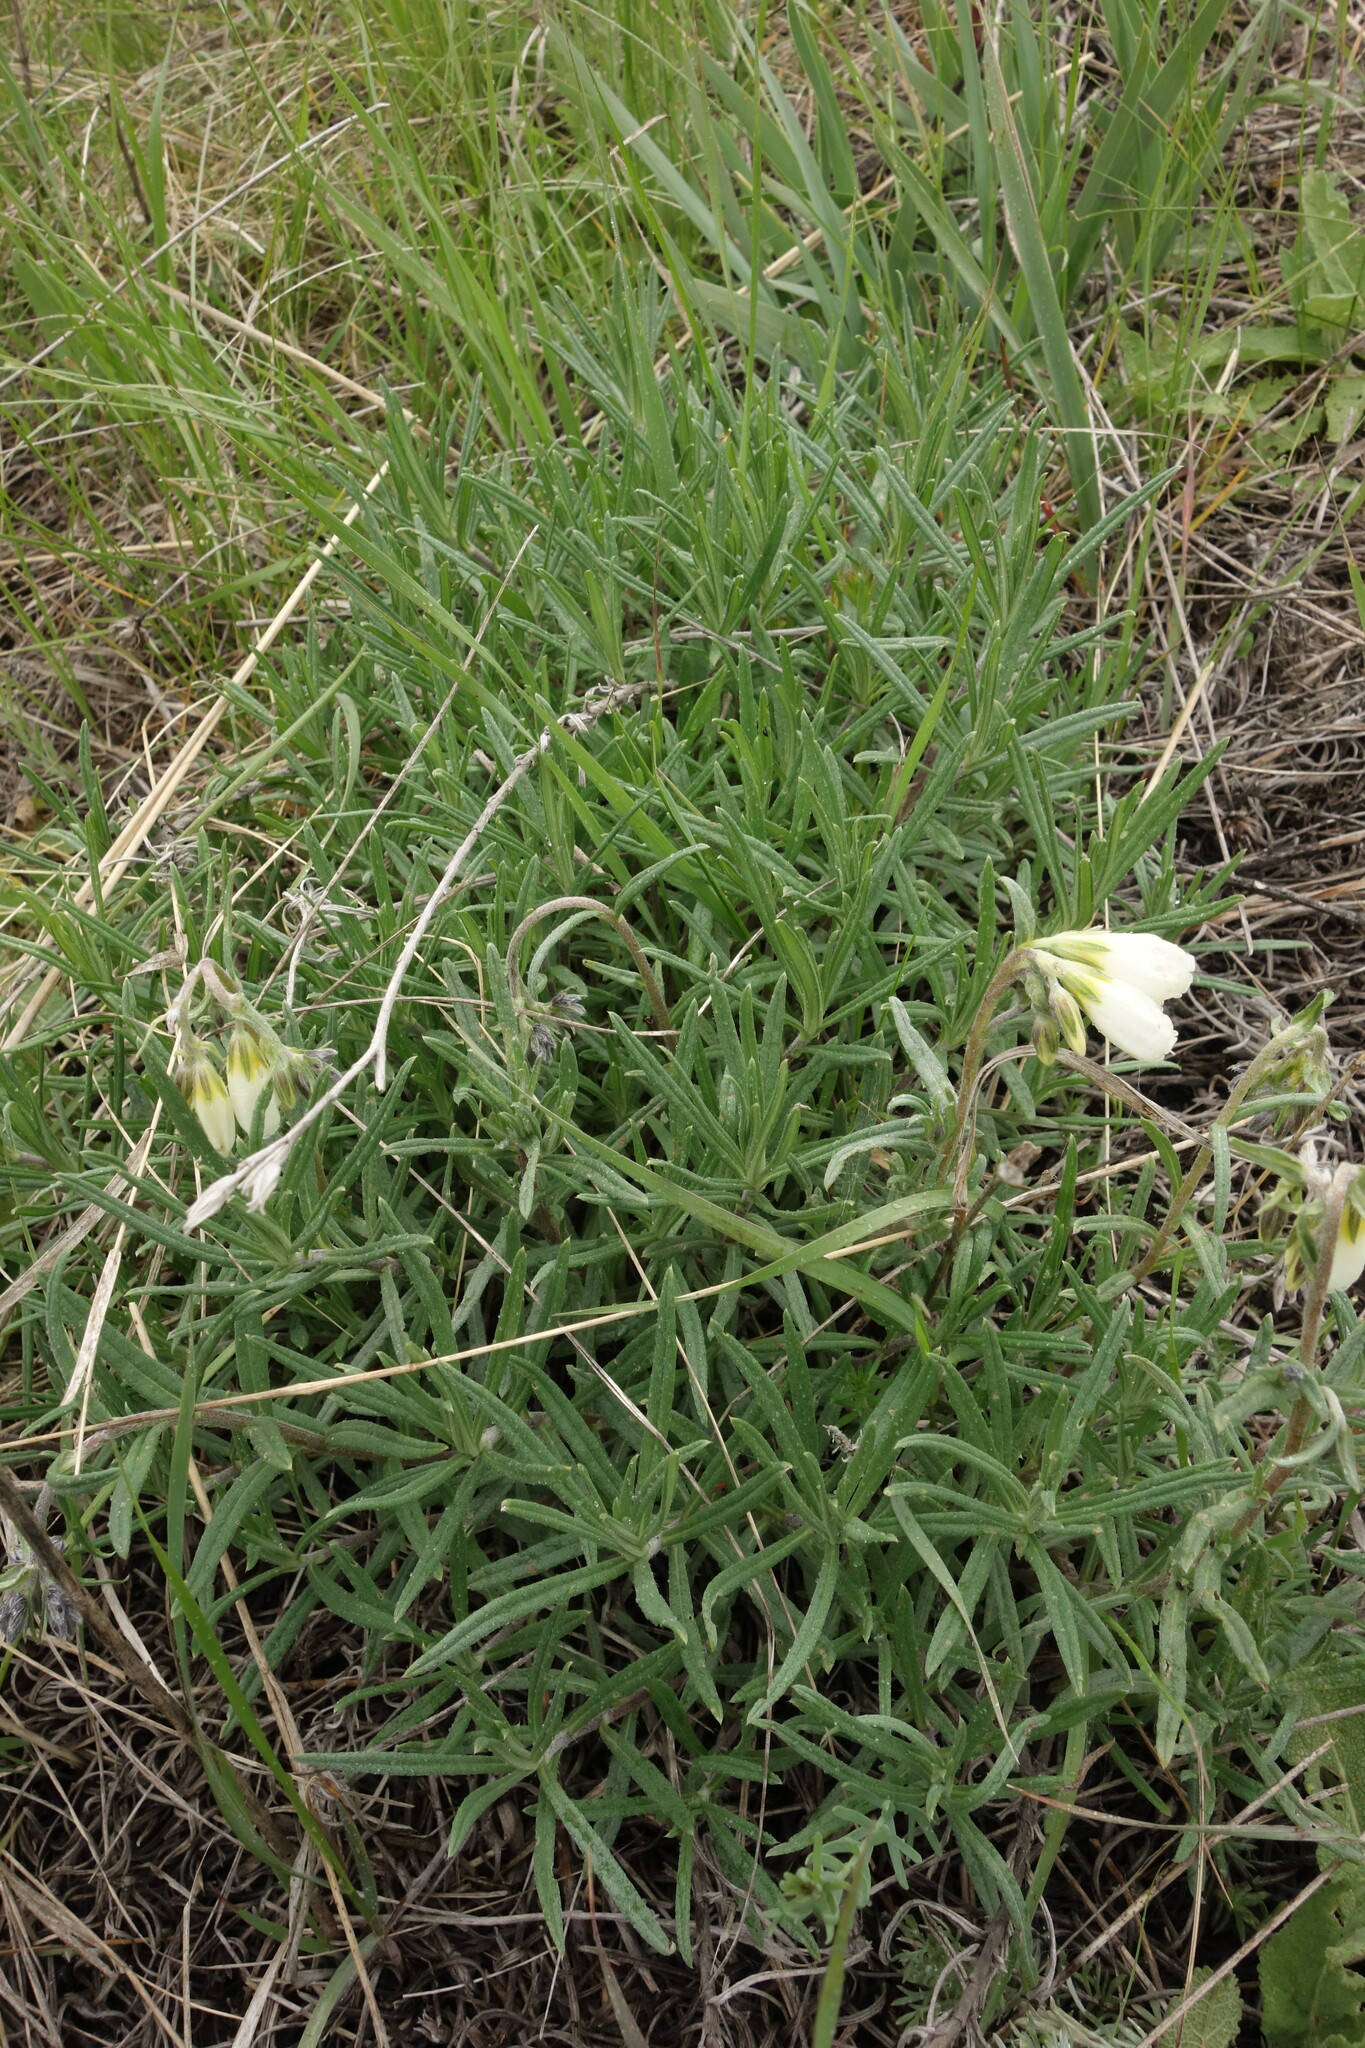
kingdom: Plantae
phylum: Tracheophyta
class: Magnoliopsida
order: Boraginales
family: Boraginaceae
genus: Onosma
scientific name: Onosma simplicissima
